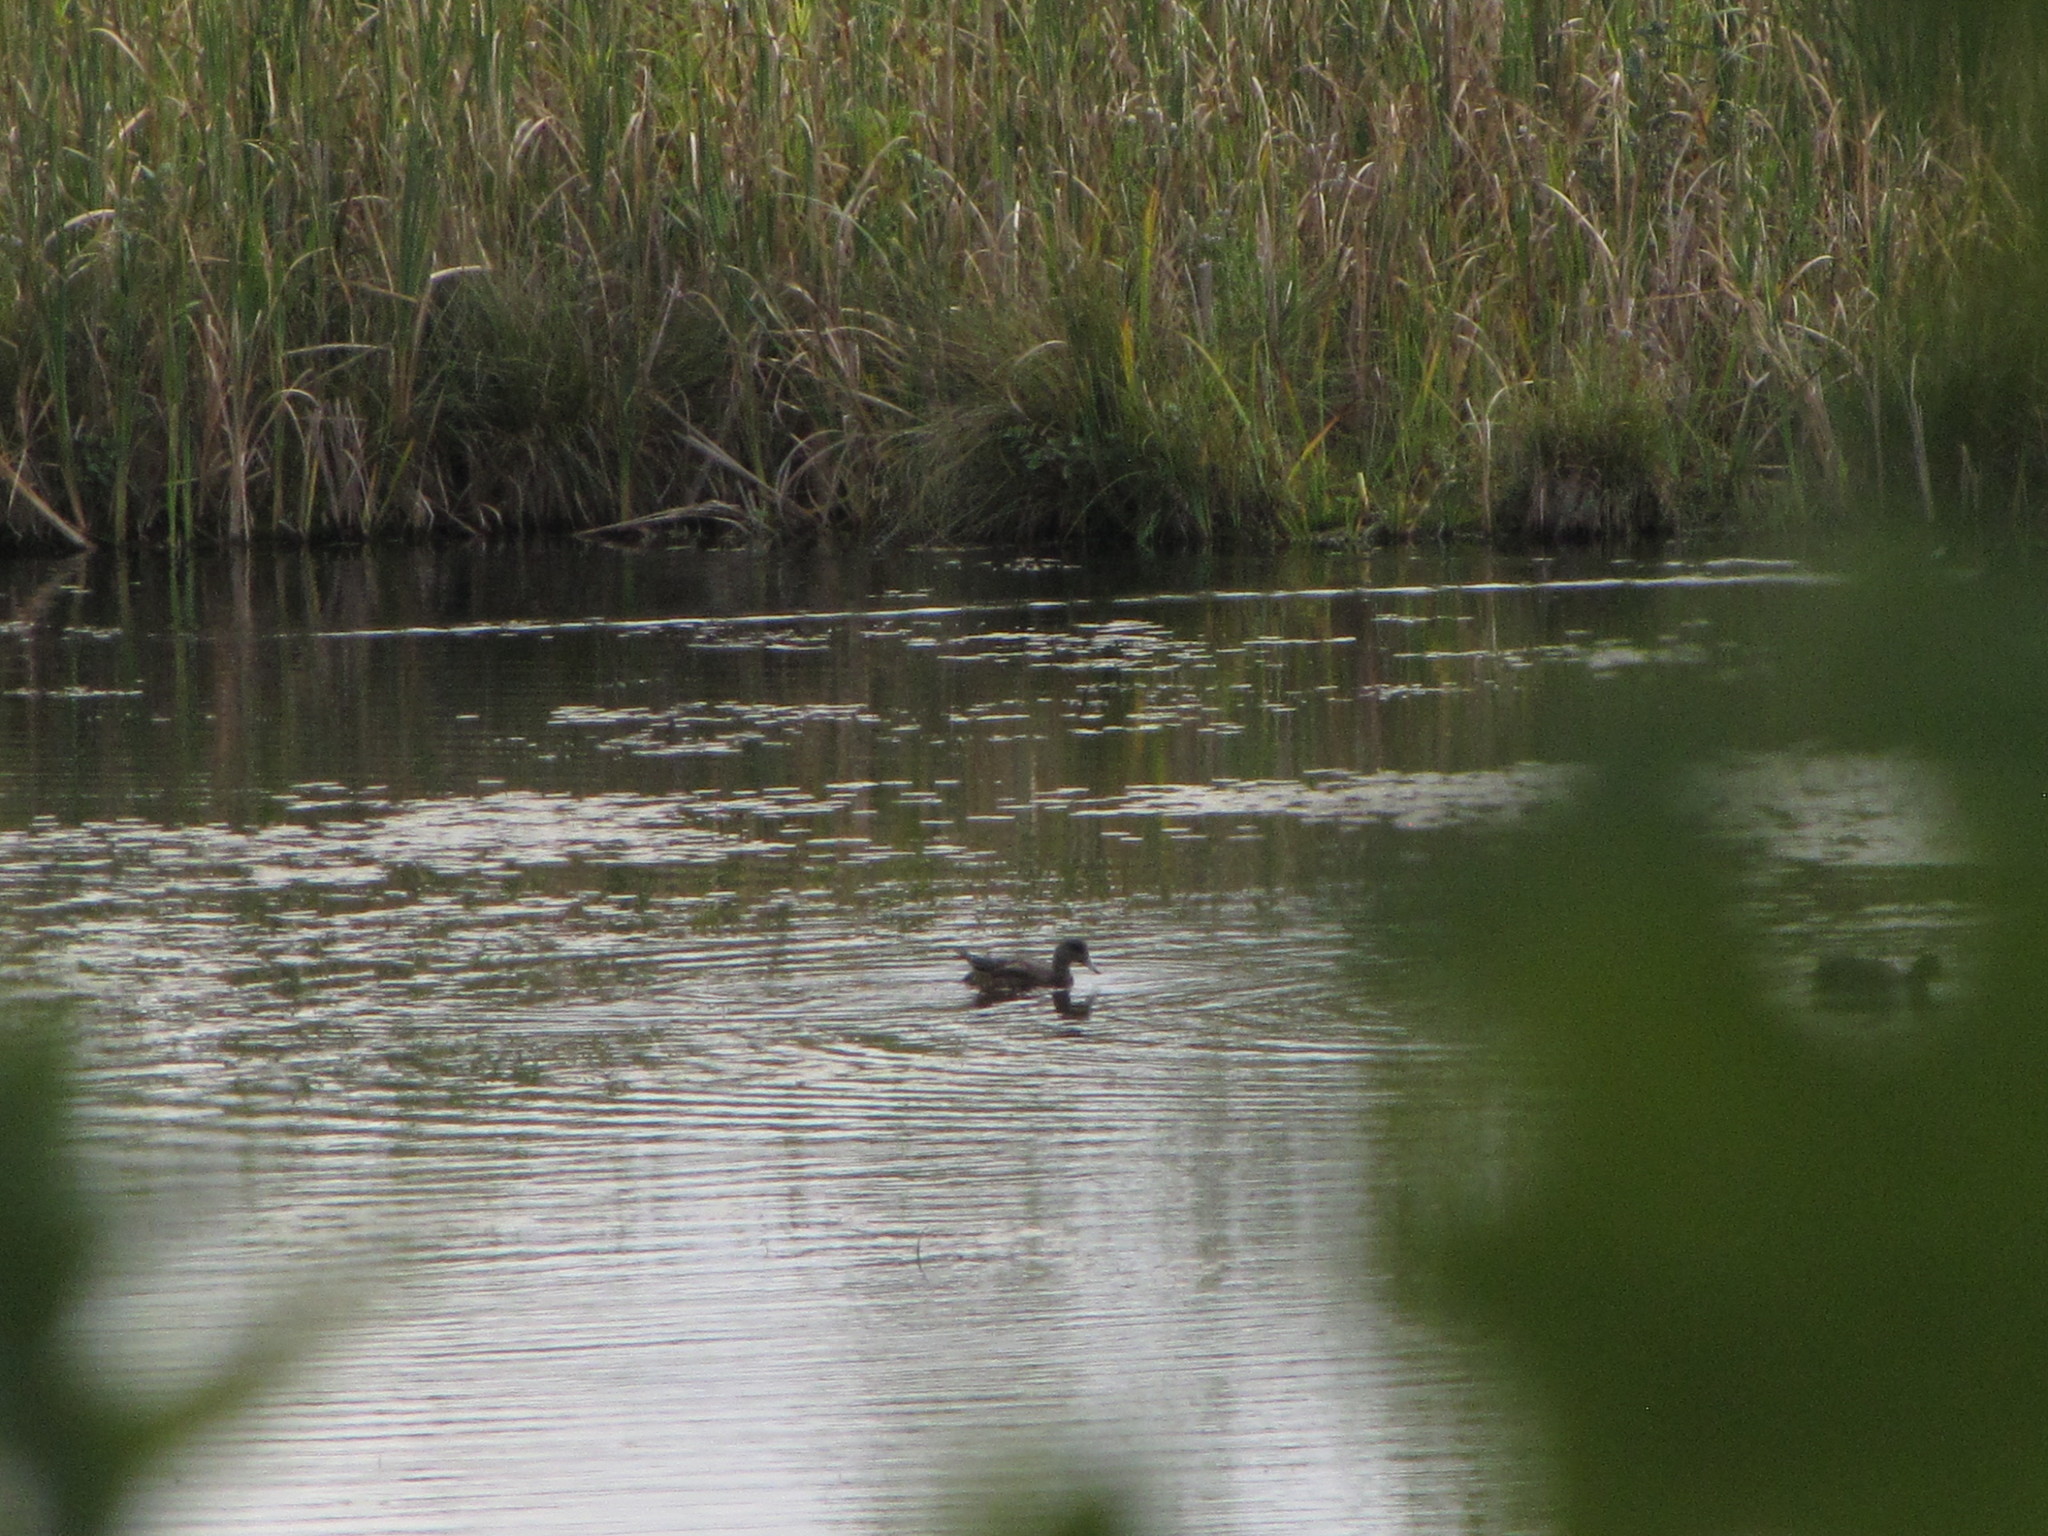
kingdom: Animalia
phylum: Chordata
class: Aves
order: Anseriformes
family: Anatidae
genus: Mareca
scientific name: Mareca americana
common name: American wigeon
